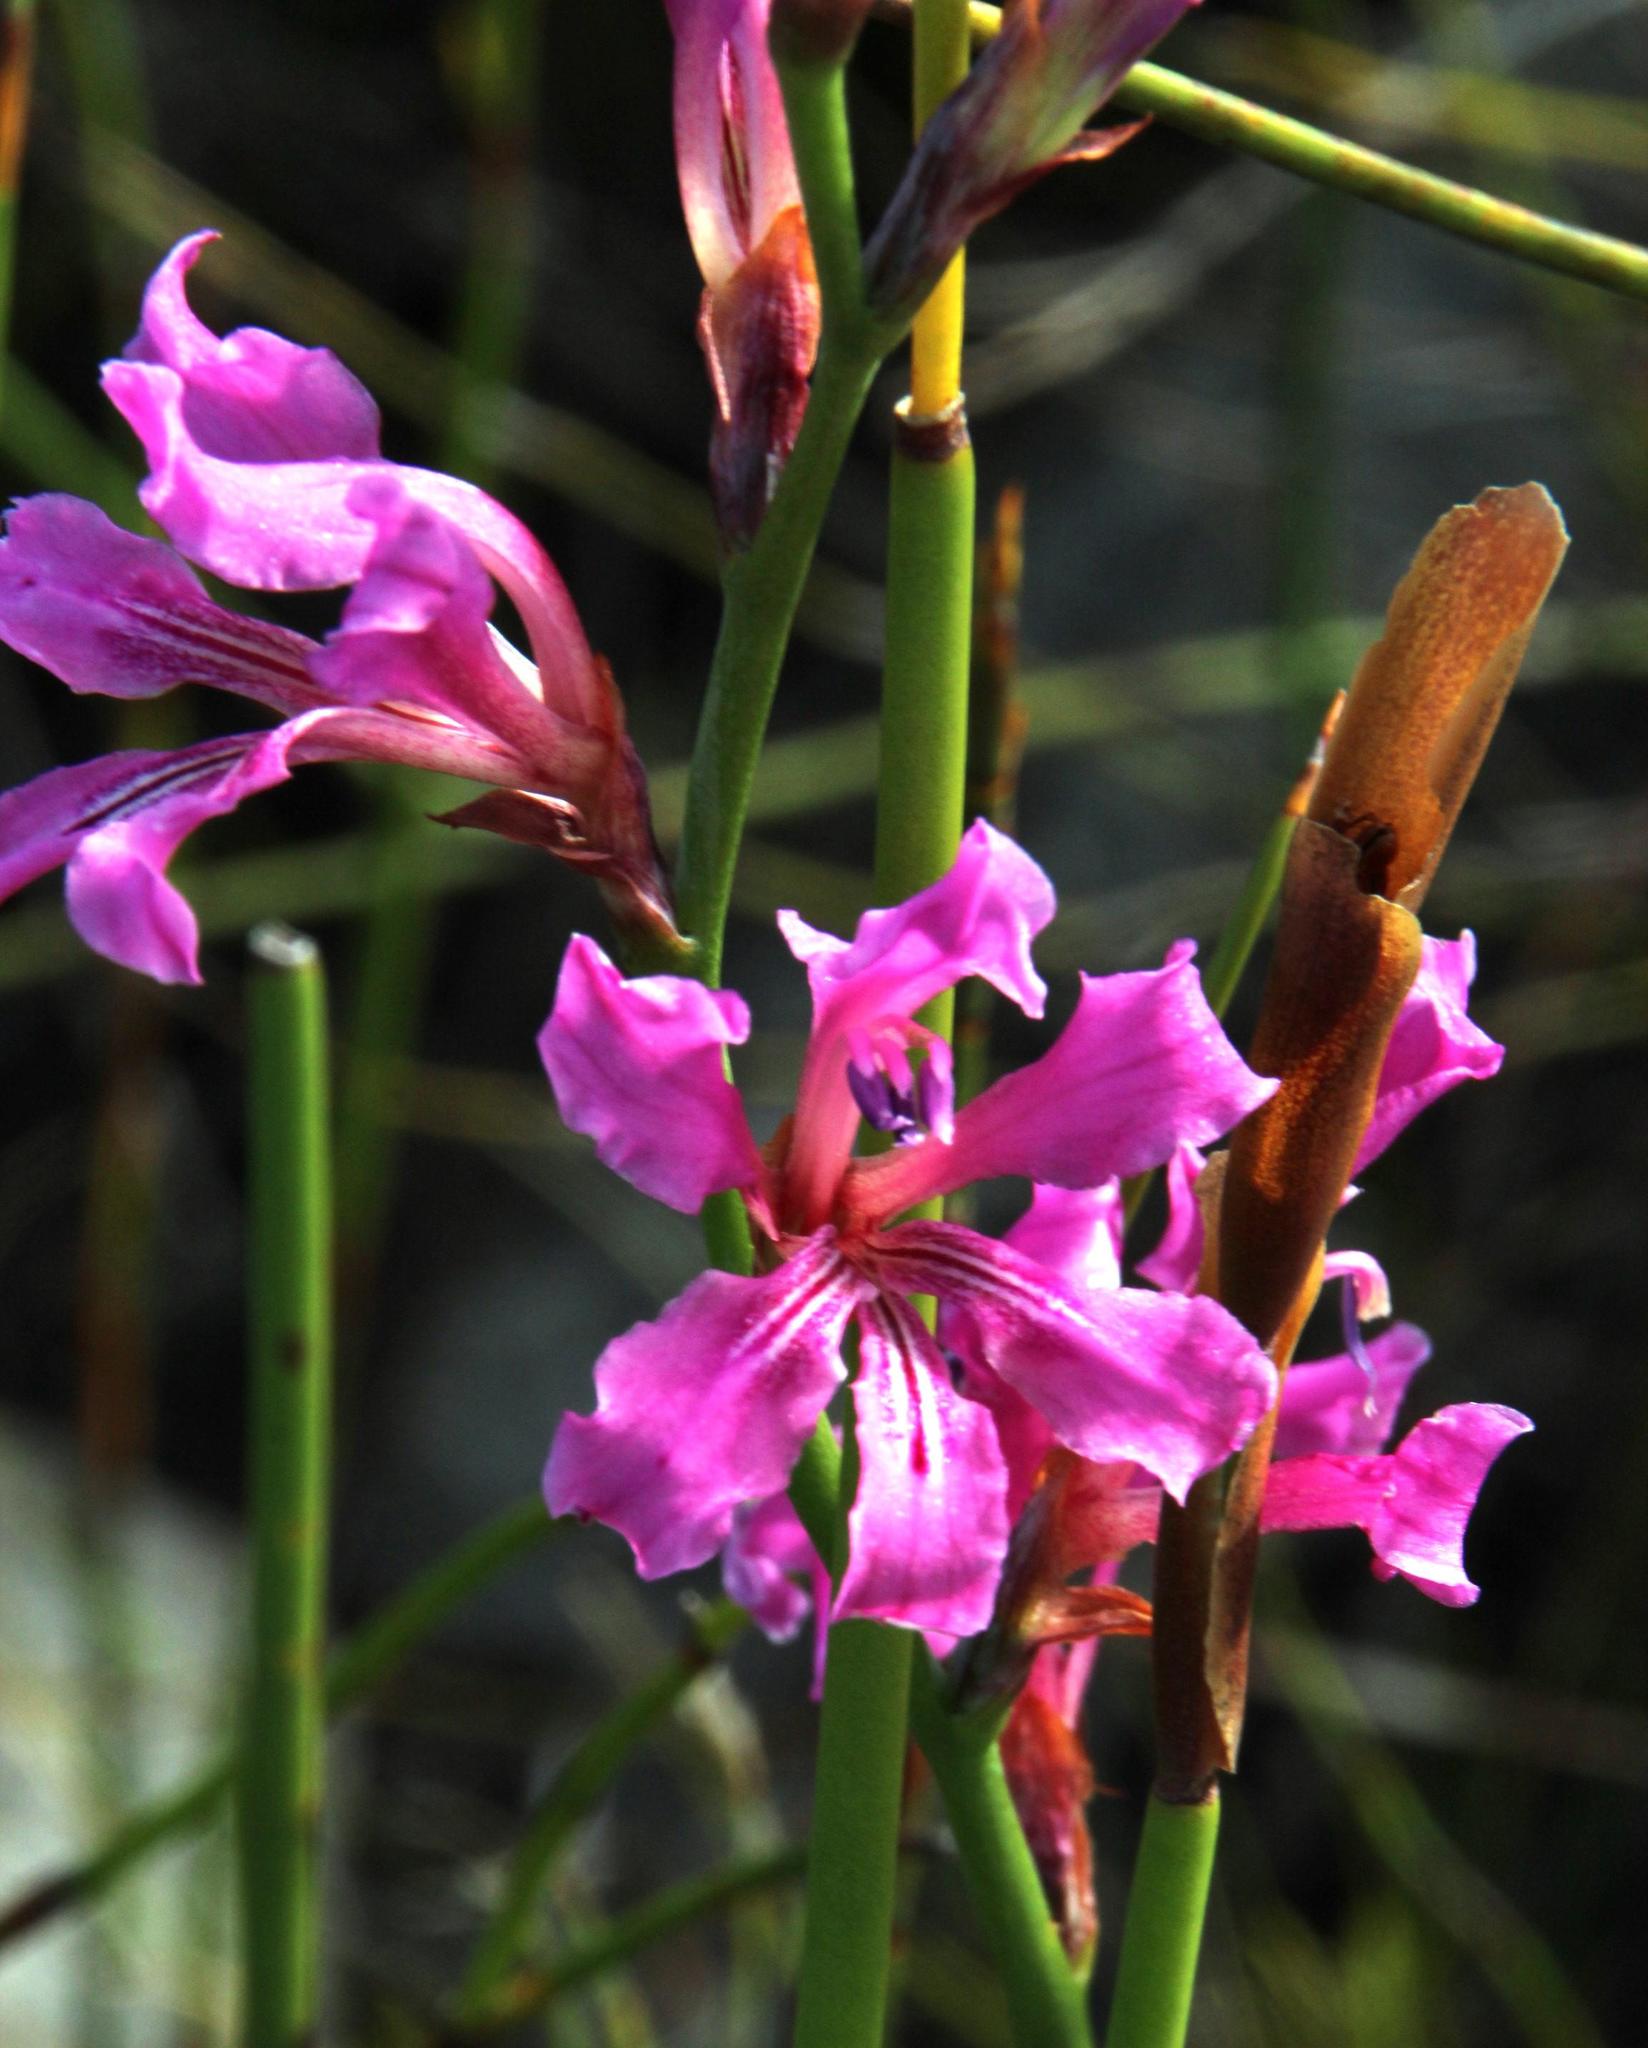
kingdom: Plantae
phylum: Tracheophyta
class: Liliopsida
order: Asparagales
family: Iridaceae
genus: Tritoniopsis
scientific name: Tritoniopsis lata
